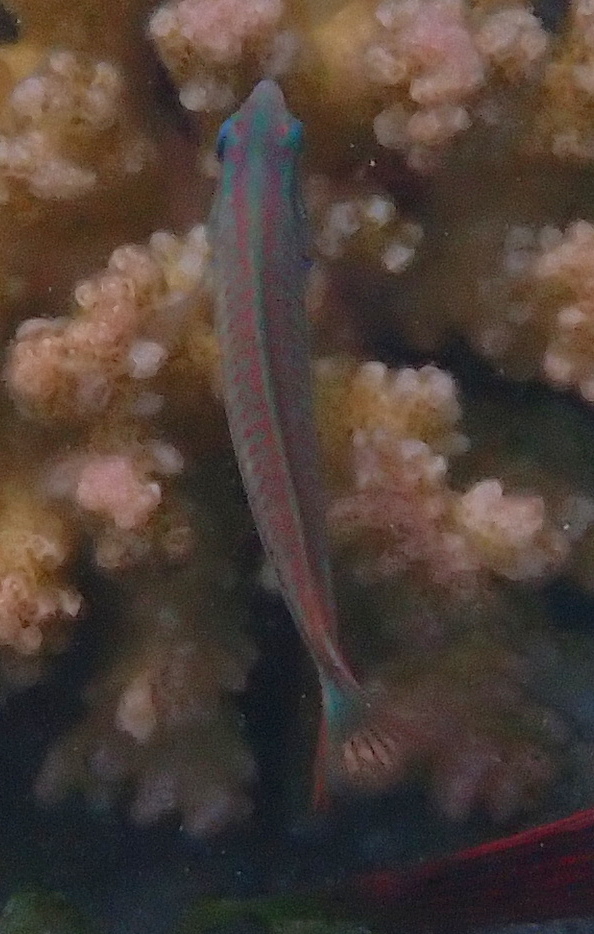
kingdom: Animalia
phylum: Chordata
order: Perciformes
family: Labridae
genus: Thalassoma
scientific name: Thalassoma rueppellii
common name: Klunzinger's wrasse
